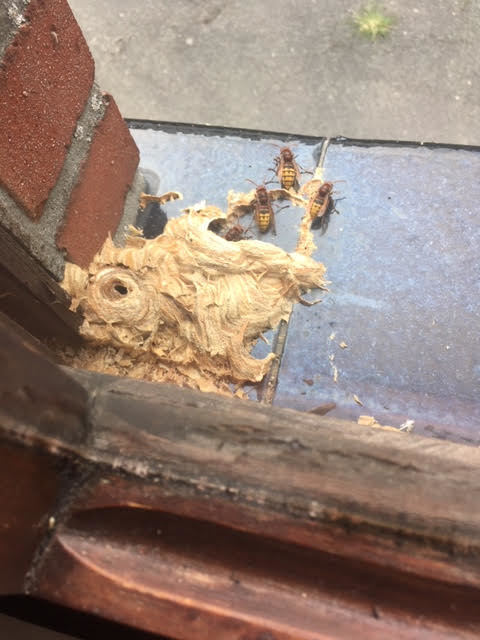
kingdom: Animalia
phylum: Arthropoda
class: Insecta
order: Hymenoptera
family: Vespidae
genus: Vespa
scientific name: Vespa crabro
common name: Hornet
